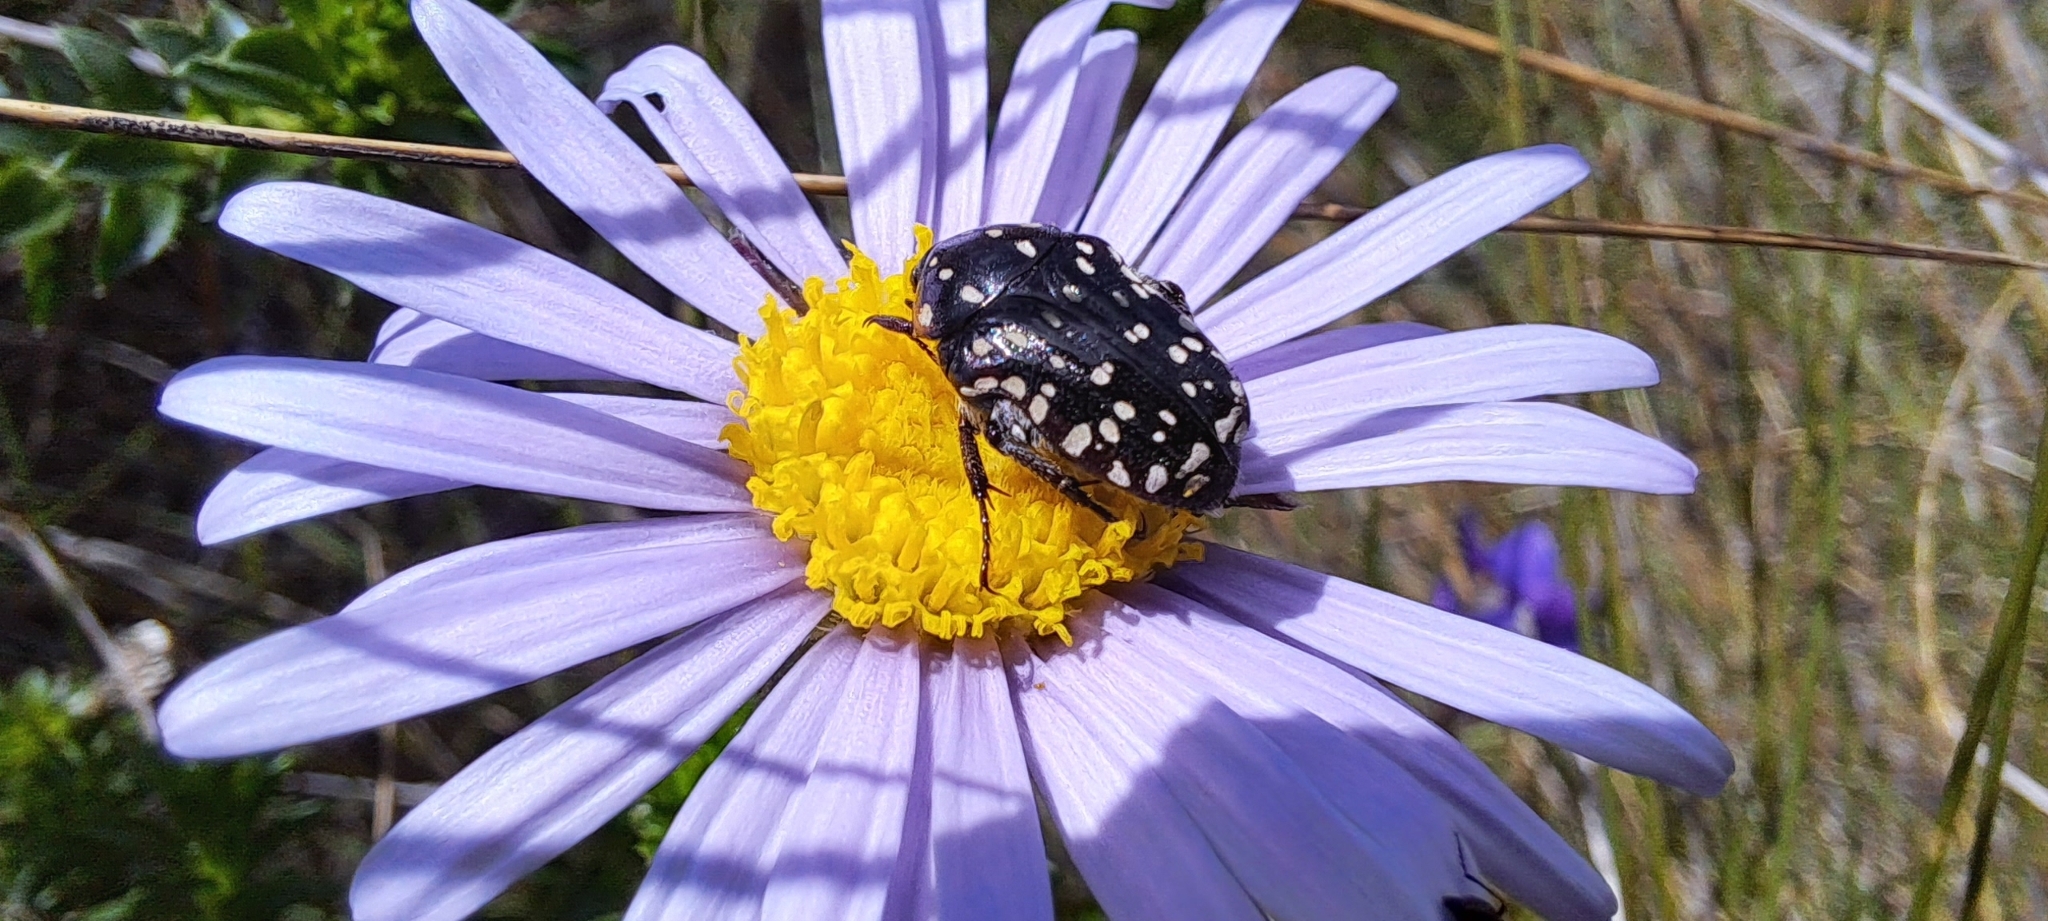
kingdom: Animalia
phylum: Arthropoda
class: Insecta
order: Coleoptera
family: Scarabaeidae
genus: Oxythyrea
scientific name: Oxythyrea
